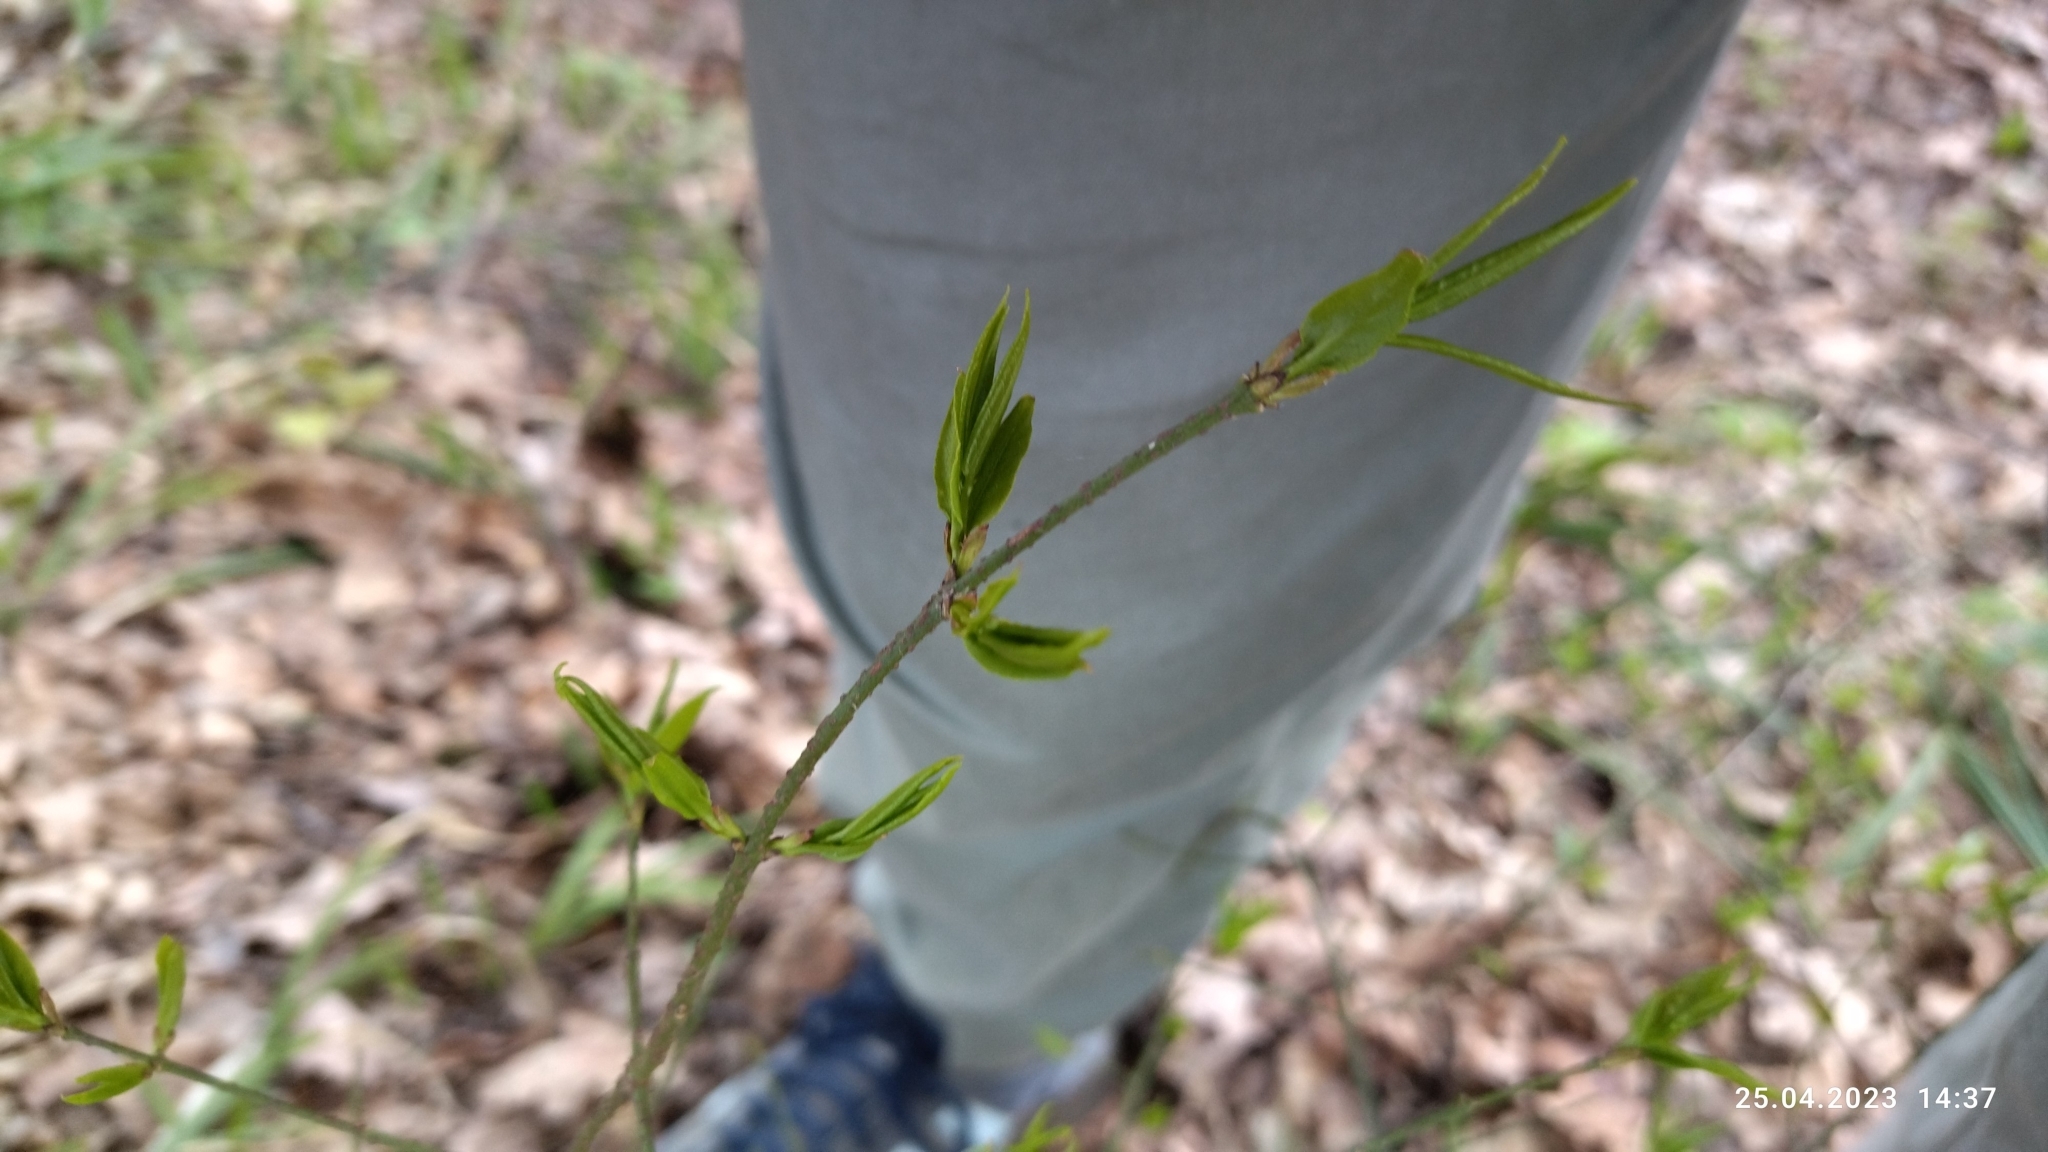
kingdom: Plantae
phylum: Tracheophyta
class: Magnoliopsida
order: Celastrales
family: Celastraceae
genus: Euonymus
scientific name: Euonymus verrucosus
